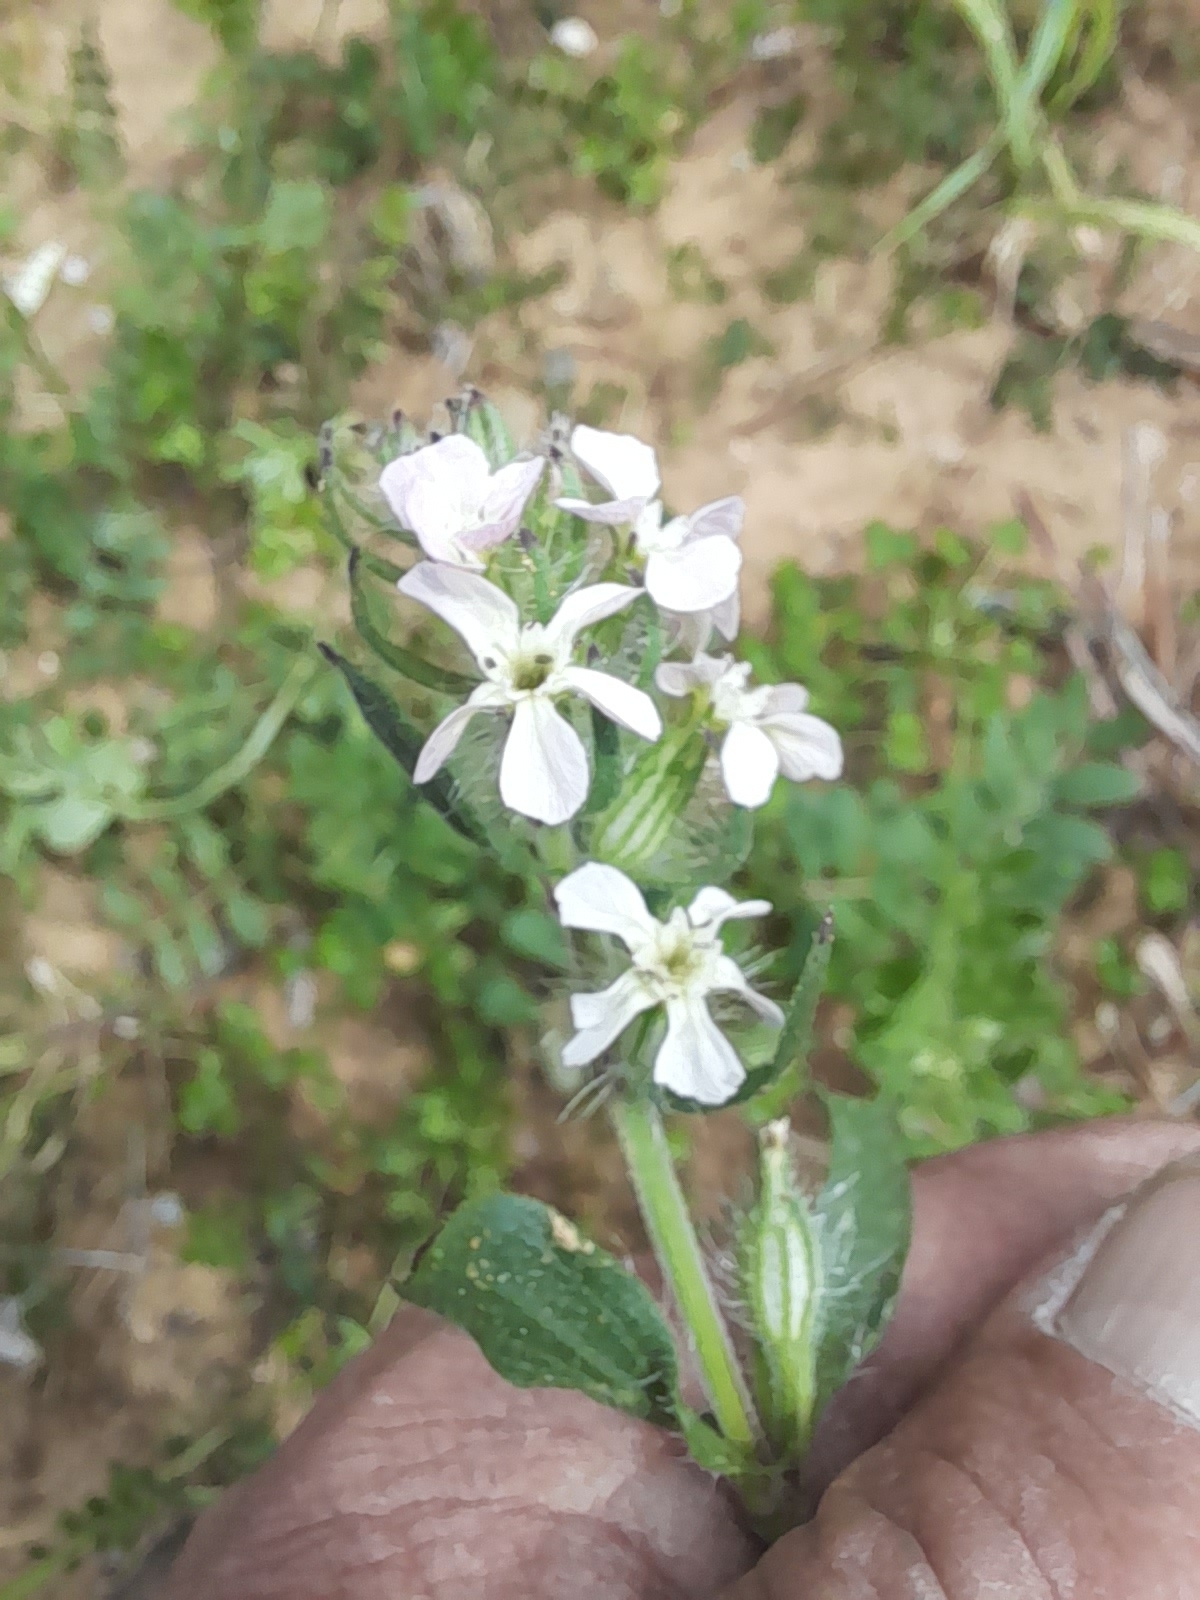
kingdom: Plantae
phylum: Tracheophyta
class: Magnoliopsida
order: Caryophyllales
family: Caryophyllaceae
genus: Silene
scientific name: Silene gallica
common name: Small-flowered catchfly
